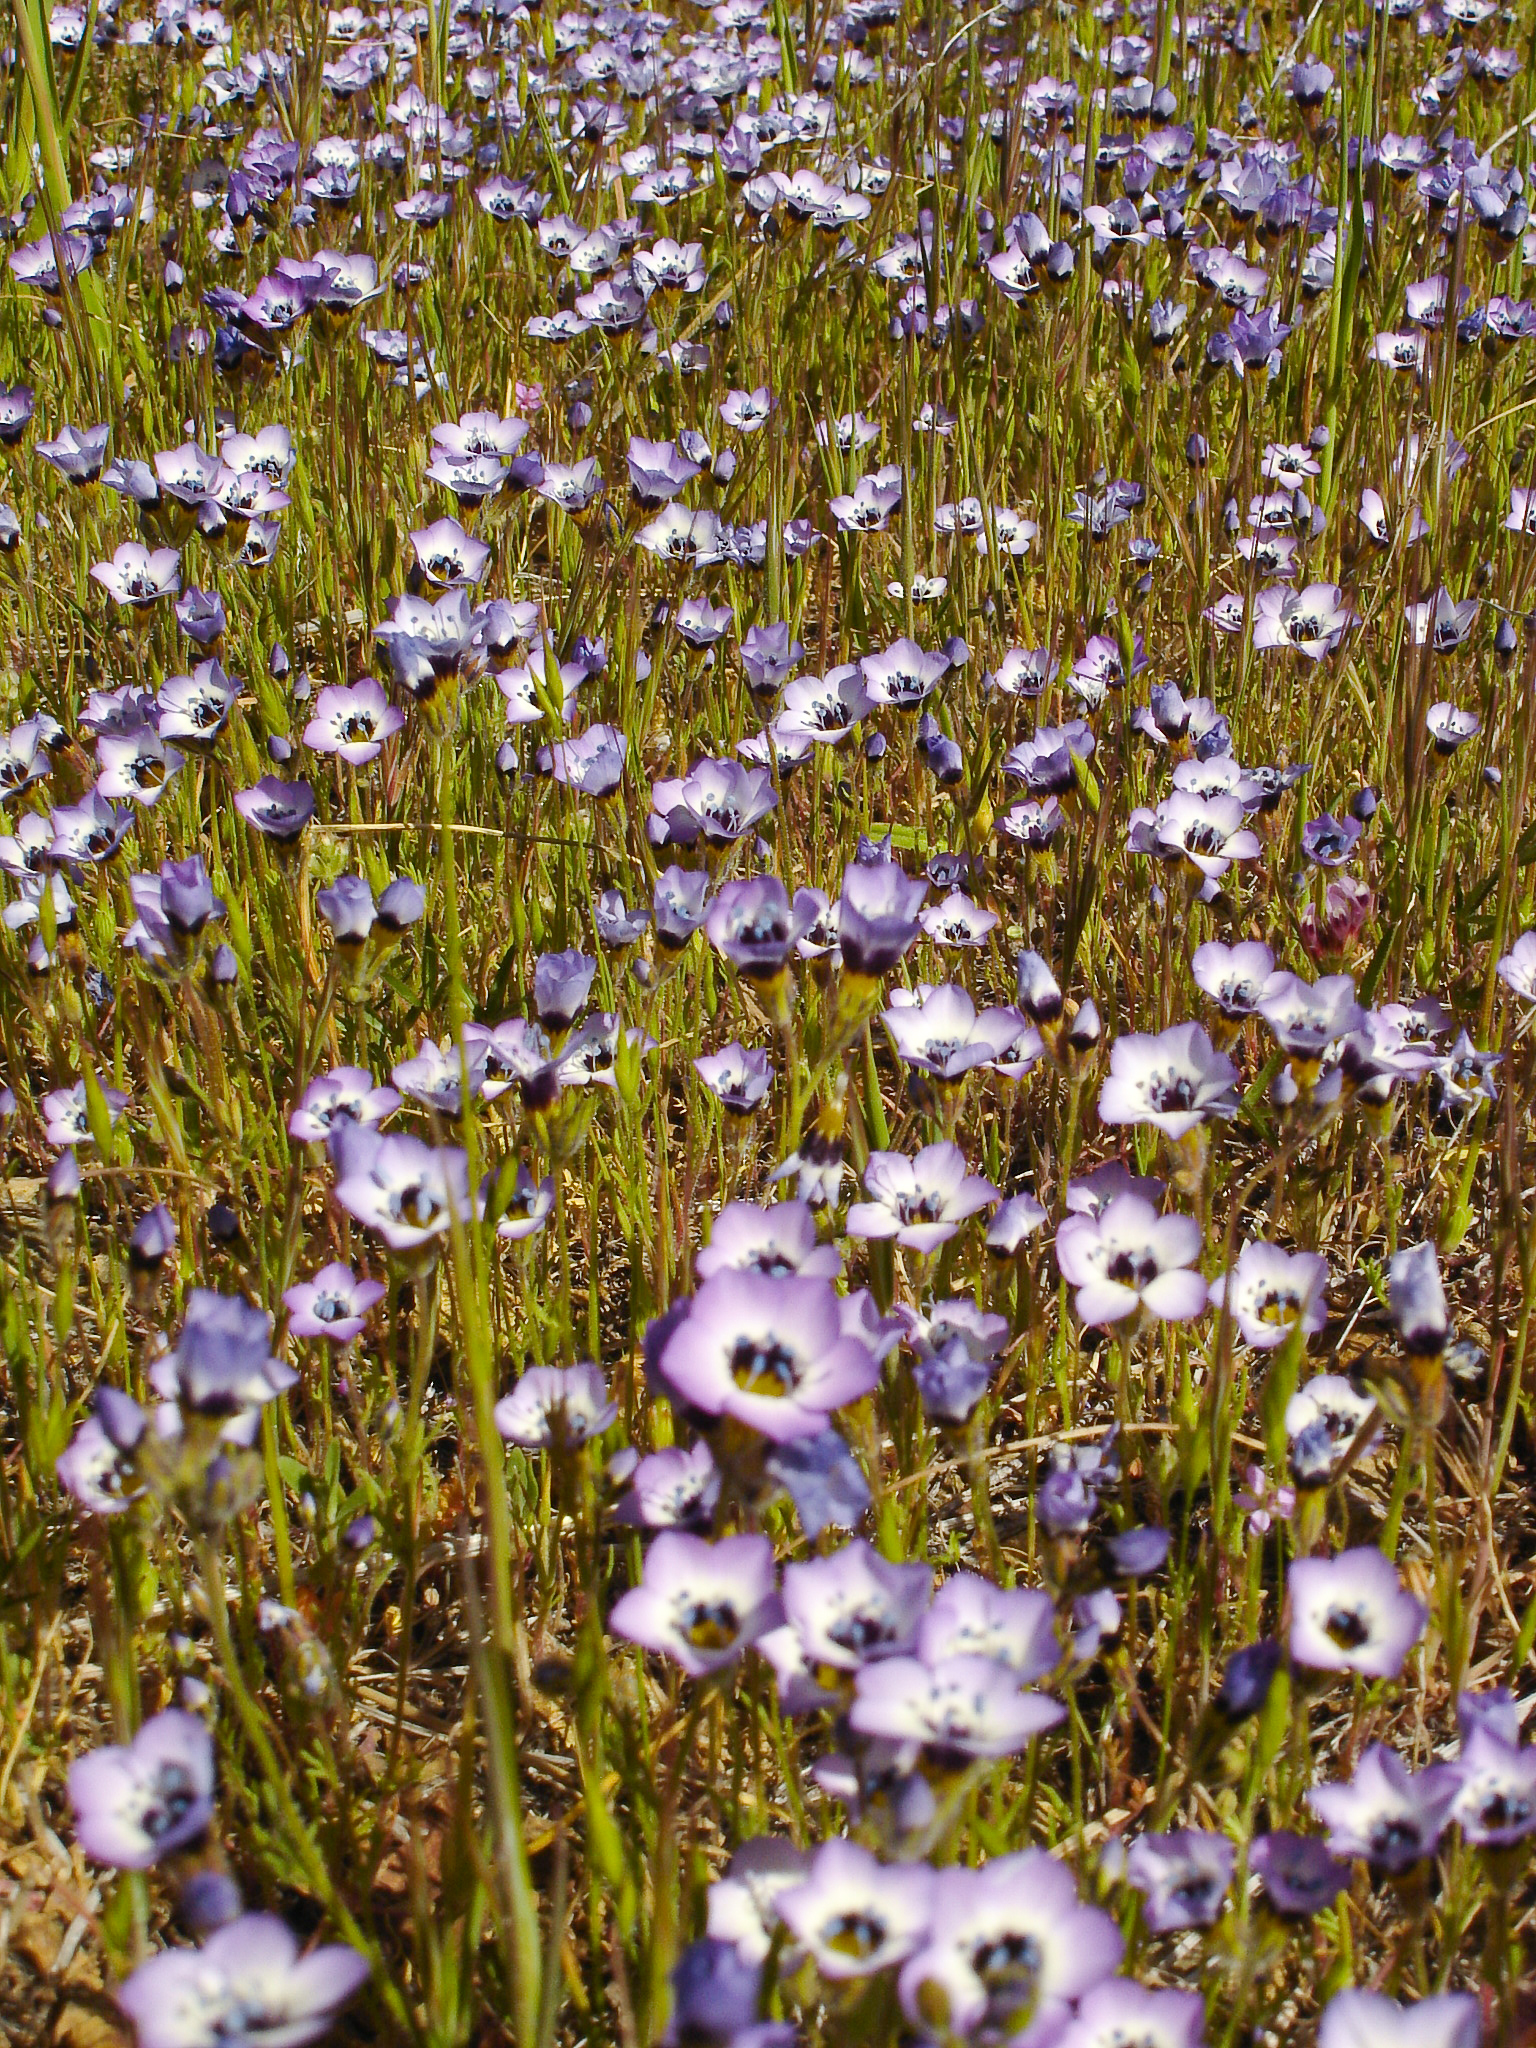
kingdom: Plantae
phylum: Tracheophyta
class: Magnoliopsida
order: Ericales
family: Polemoniaceae
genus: Gilia
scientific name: Gilia tricolor
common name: Bird's-eyes
